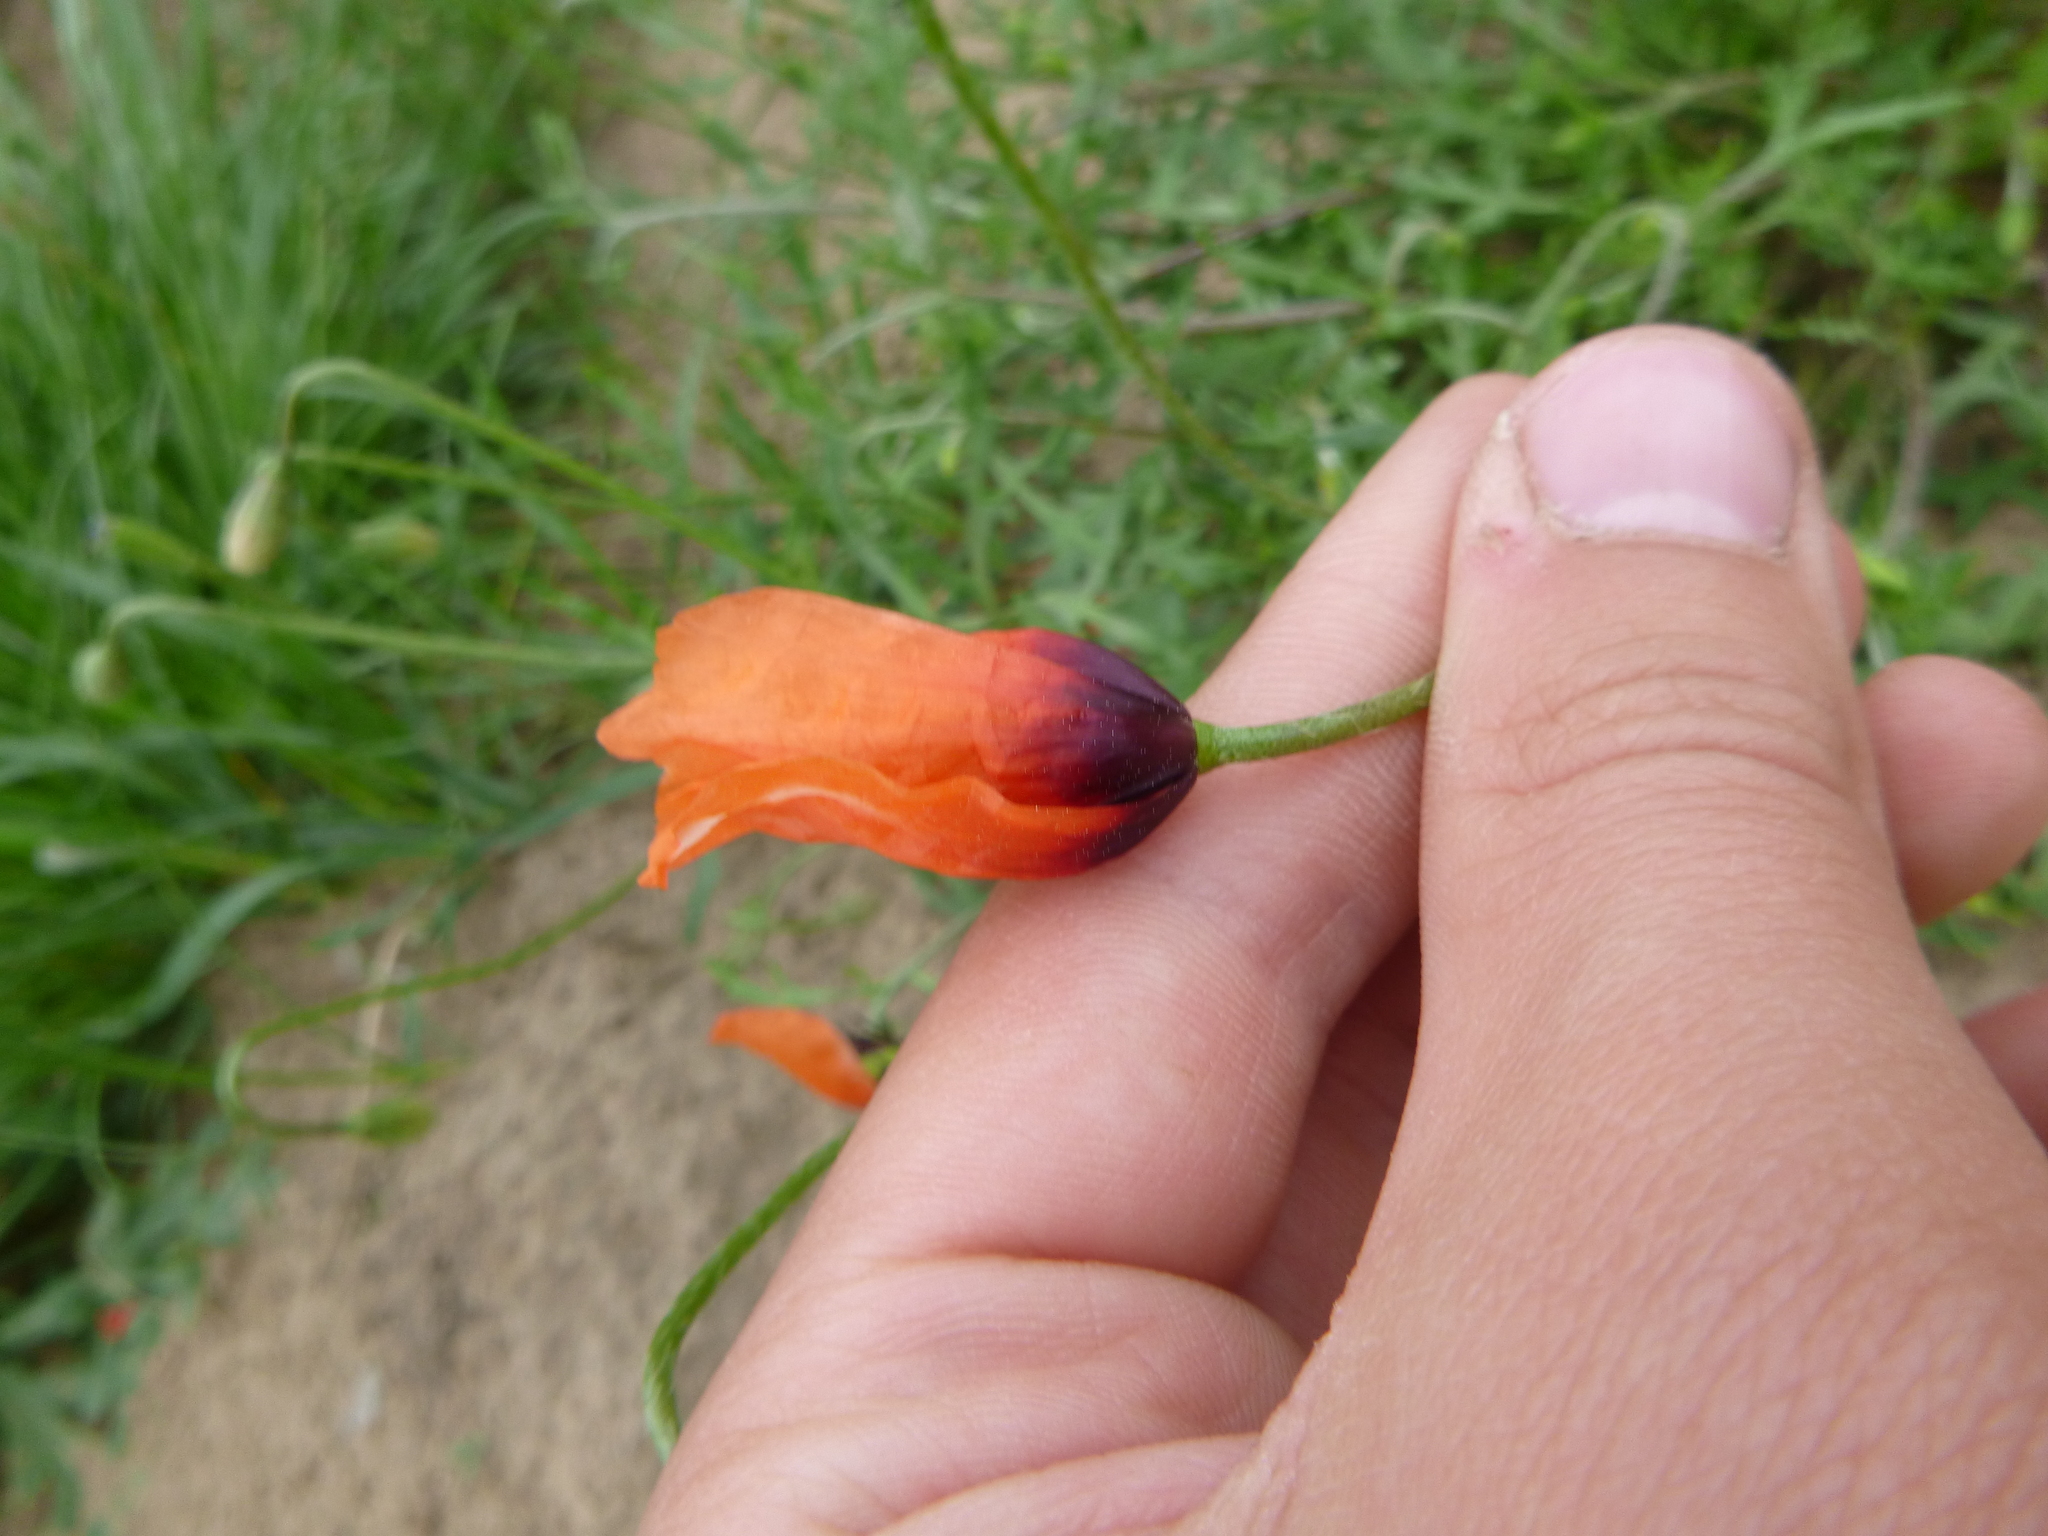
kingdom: Plantae
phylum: Tracheophyta
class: Magnoliopsida
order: Ranunculales
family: Papaveraceae
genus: Roemeria
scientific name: Roemeria argemone
